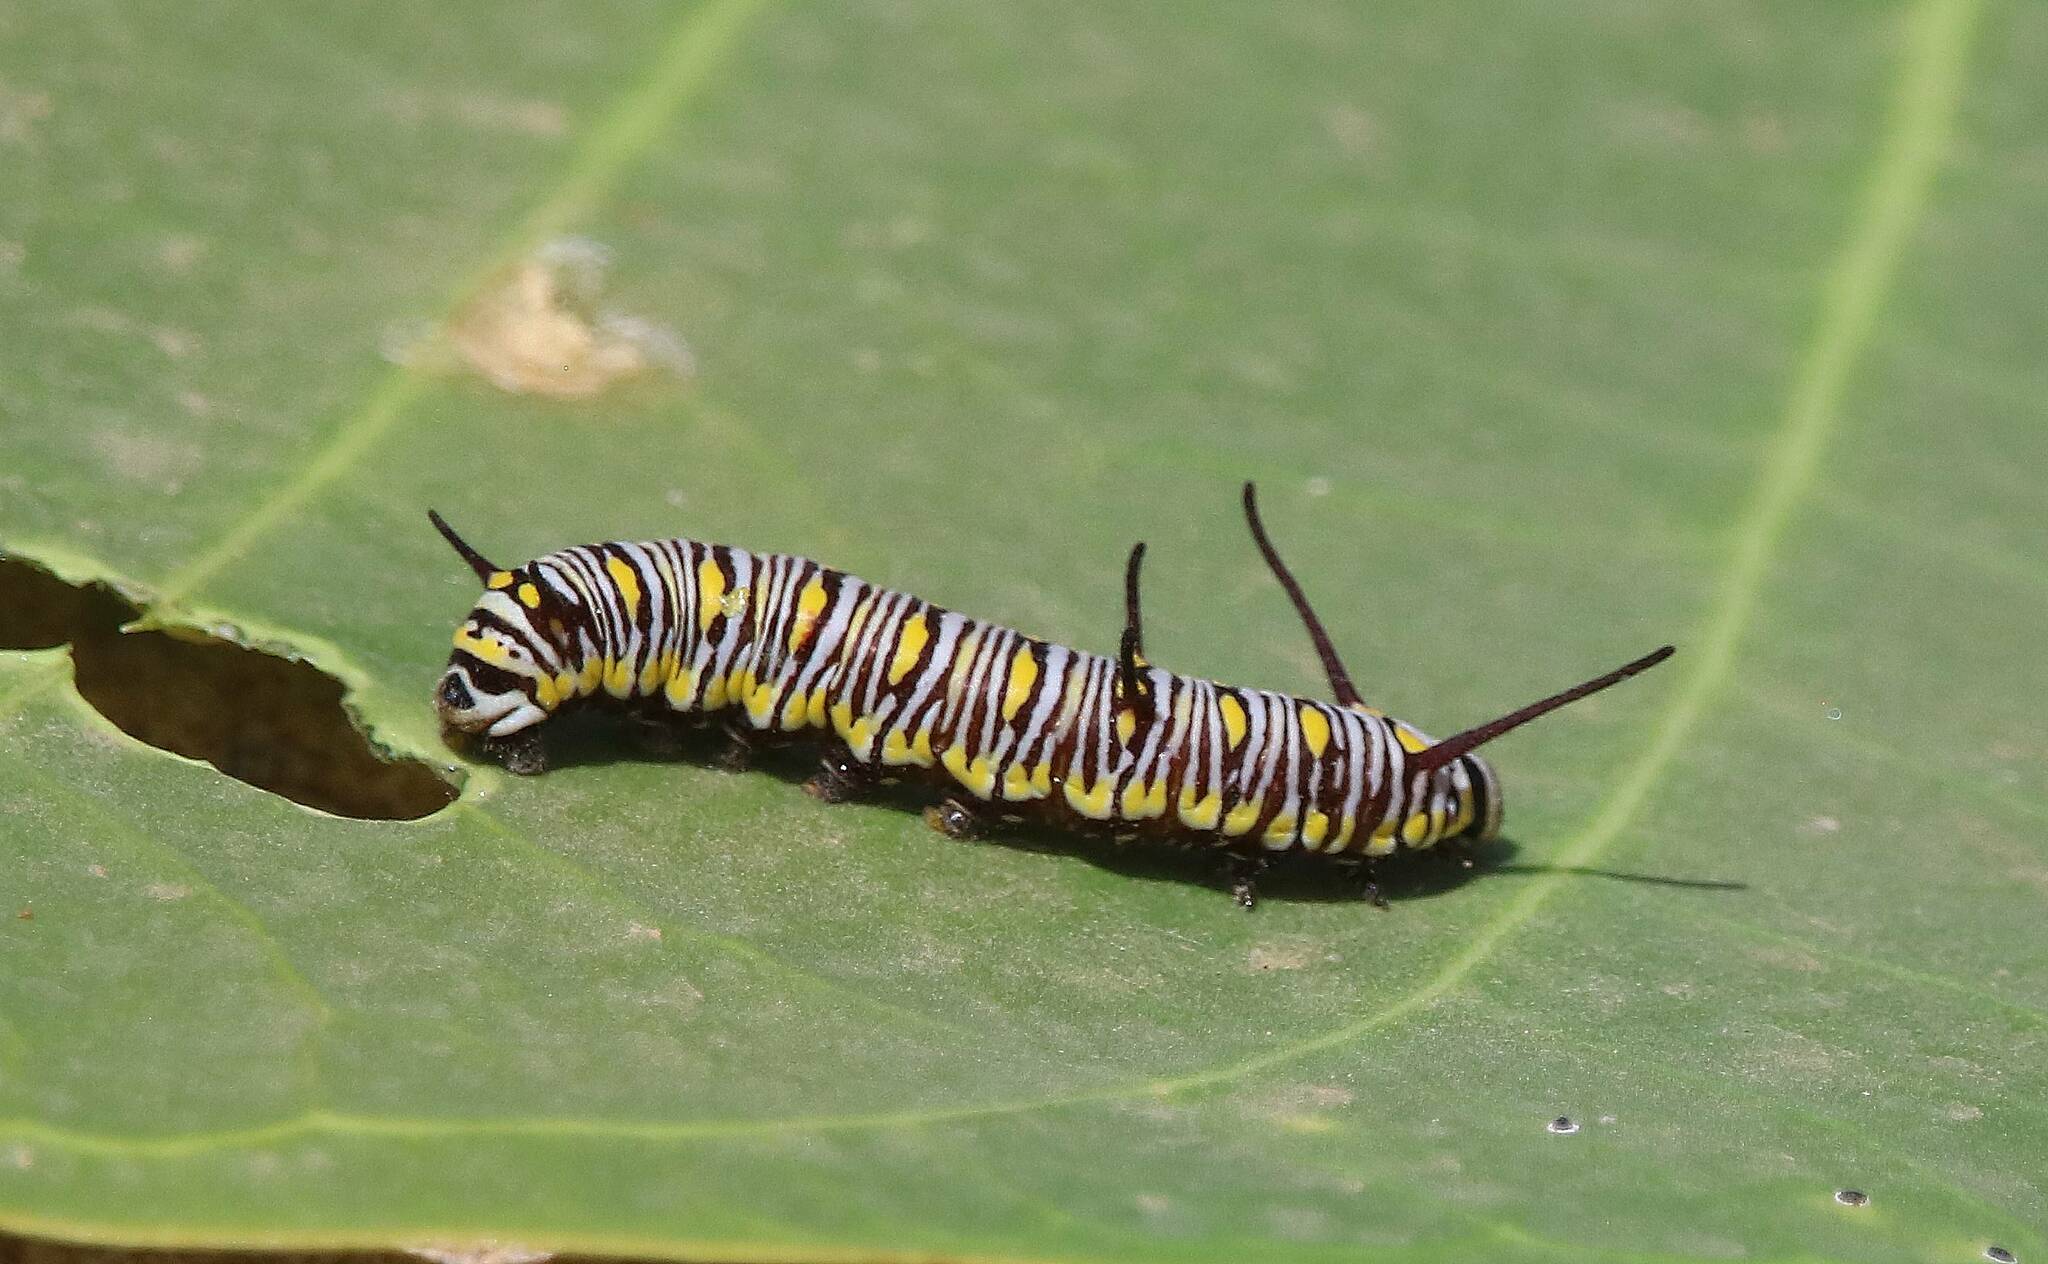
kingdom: Animalia
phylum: Arthropoda
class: Insecta
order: Lepidoptera
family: Nymphalidae
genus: Danaus
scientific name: Danaus chrysippus
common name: Plain tiger
